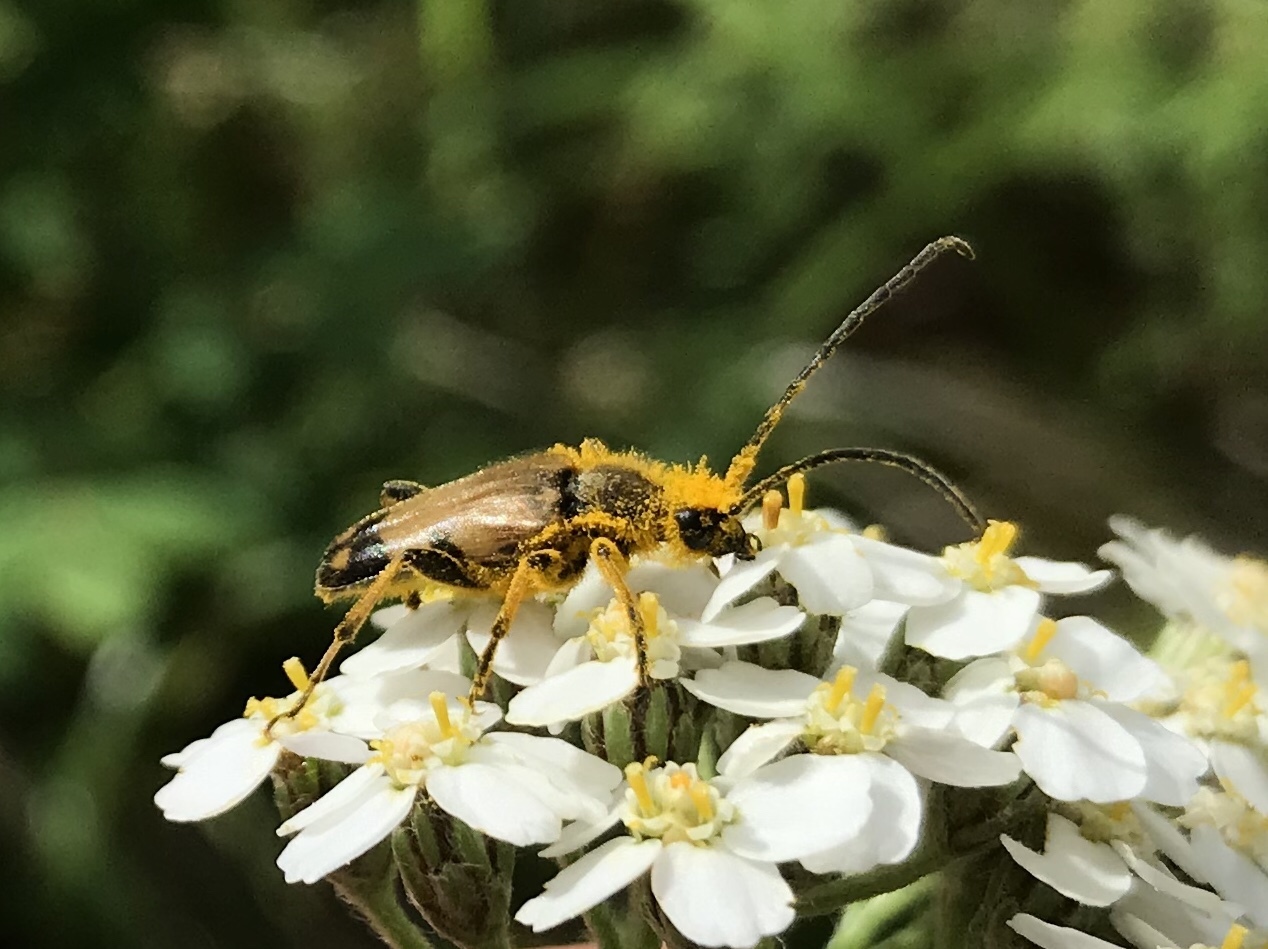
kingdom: Animalia
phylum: Arthropoda
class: Insecta
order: Coleoptera
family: Cerambycidae
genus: Xestoleptura
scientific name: Xestoleptura crassipes
